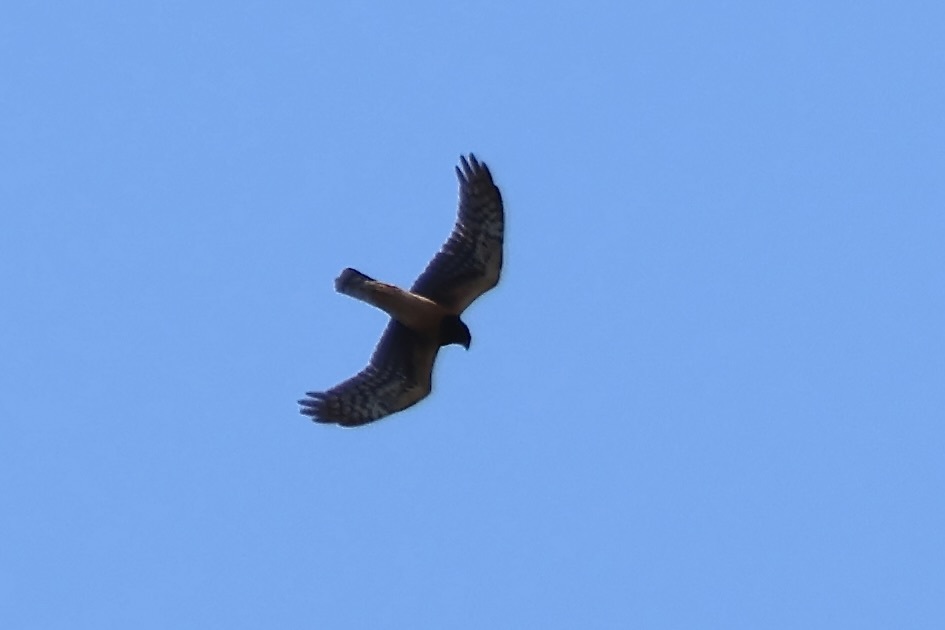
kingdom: Animalia
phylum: Chordata
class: Aves
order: Accipitriformes
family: Accipitridae
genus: Circus
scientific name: Circus cyaneus
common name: Hen harrier
